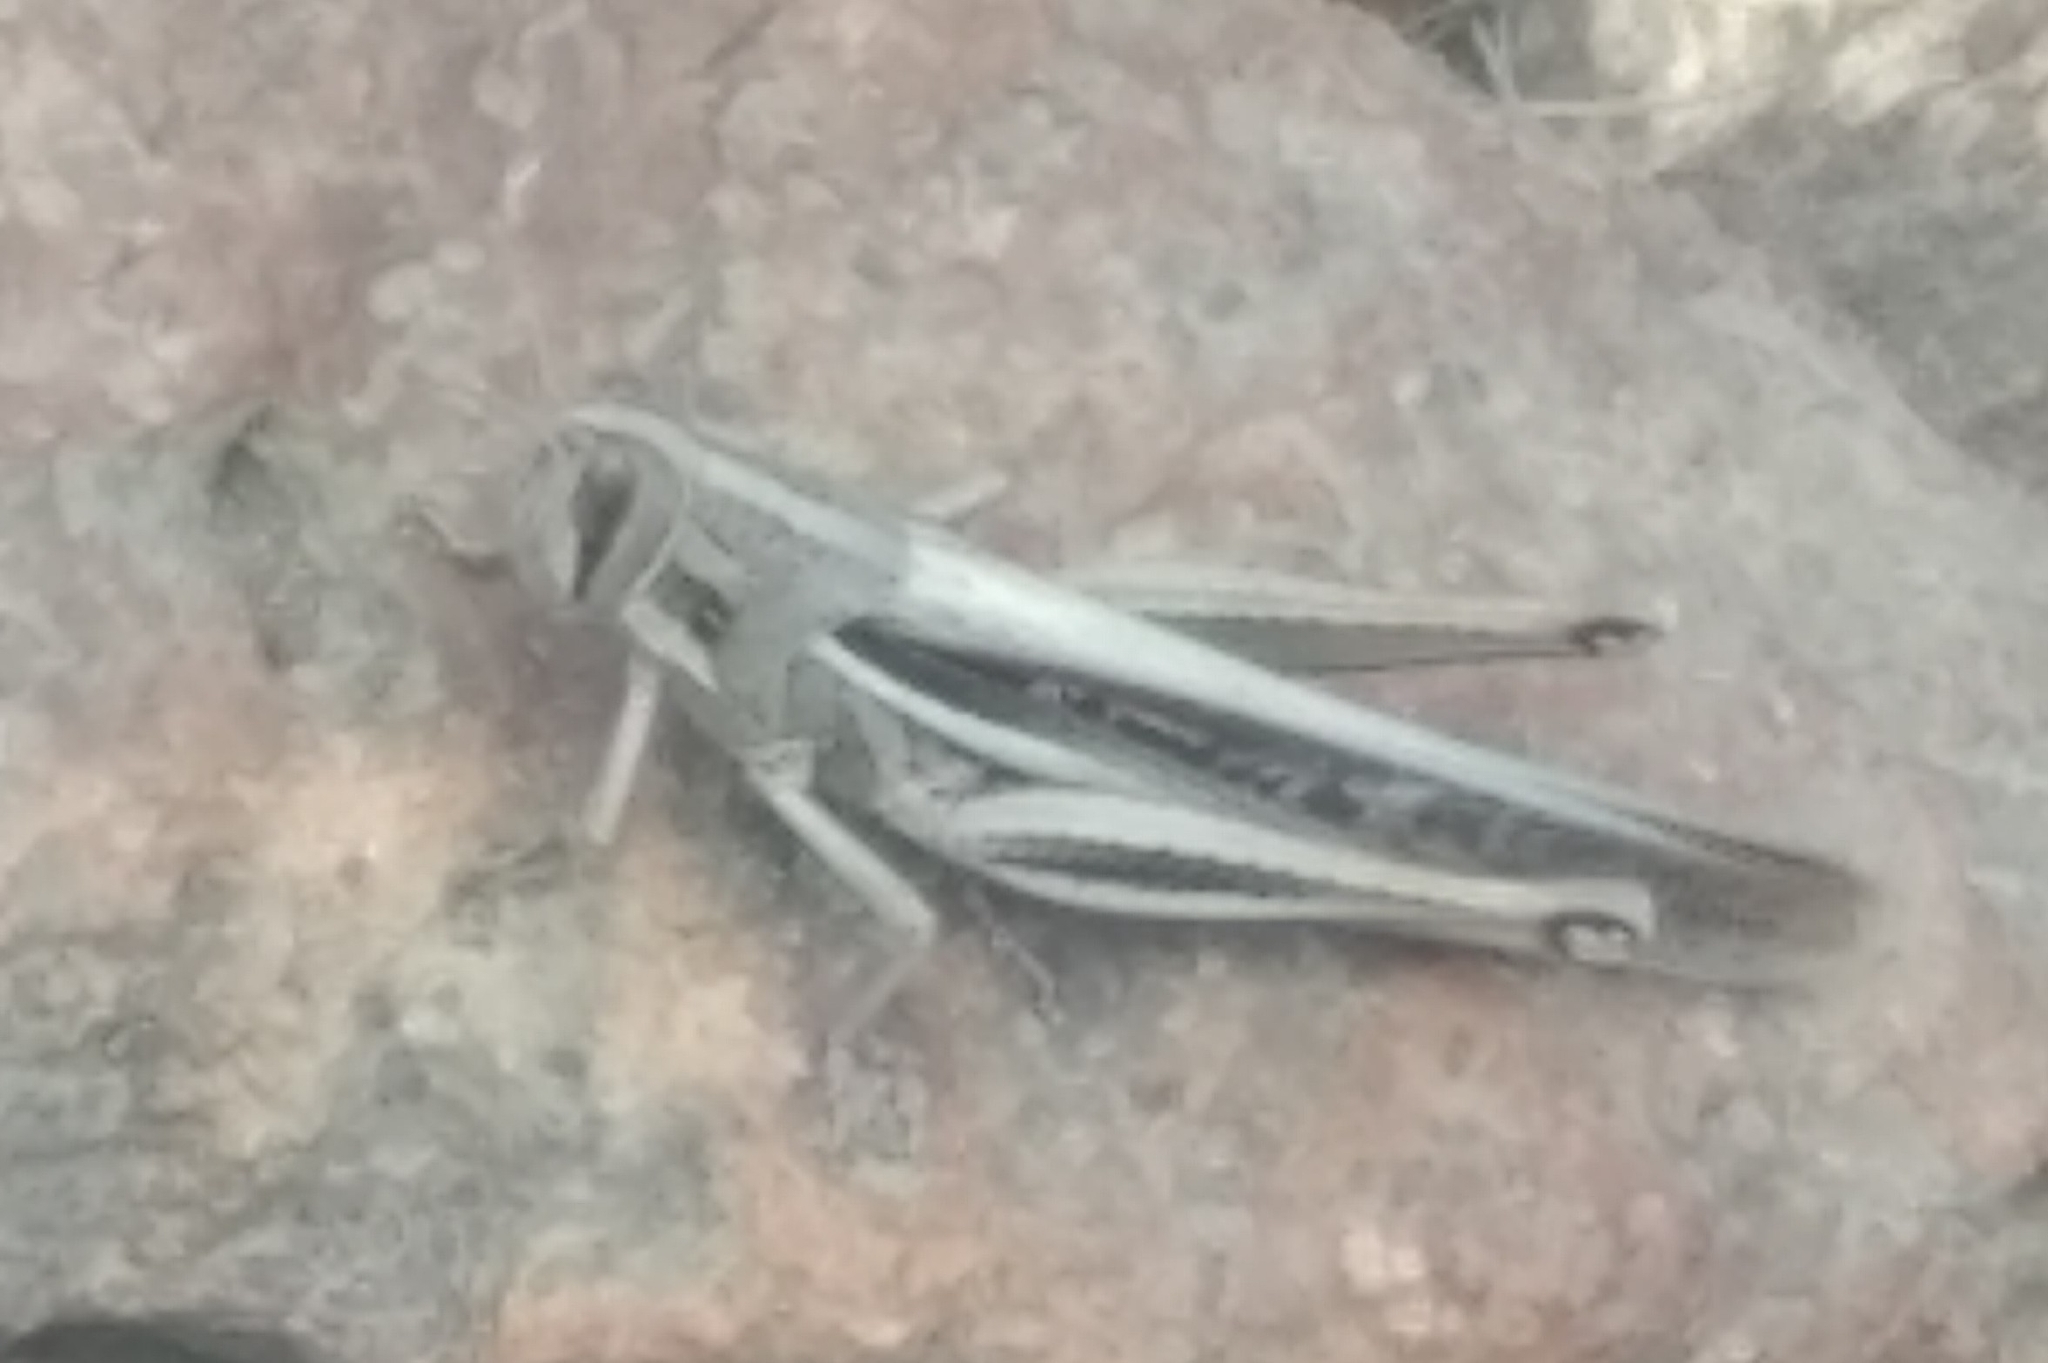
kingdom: Animalia
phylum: Arthropoda
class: Insecta
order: Orthoptera
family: Acrididae
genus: Schistocerca
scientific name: Schistocerca pallens
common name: Bird grasshopper
